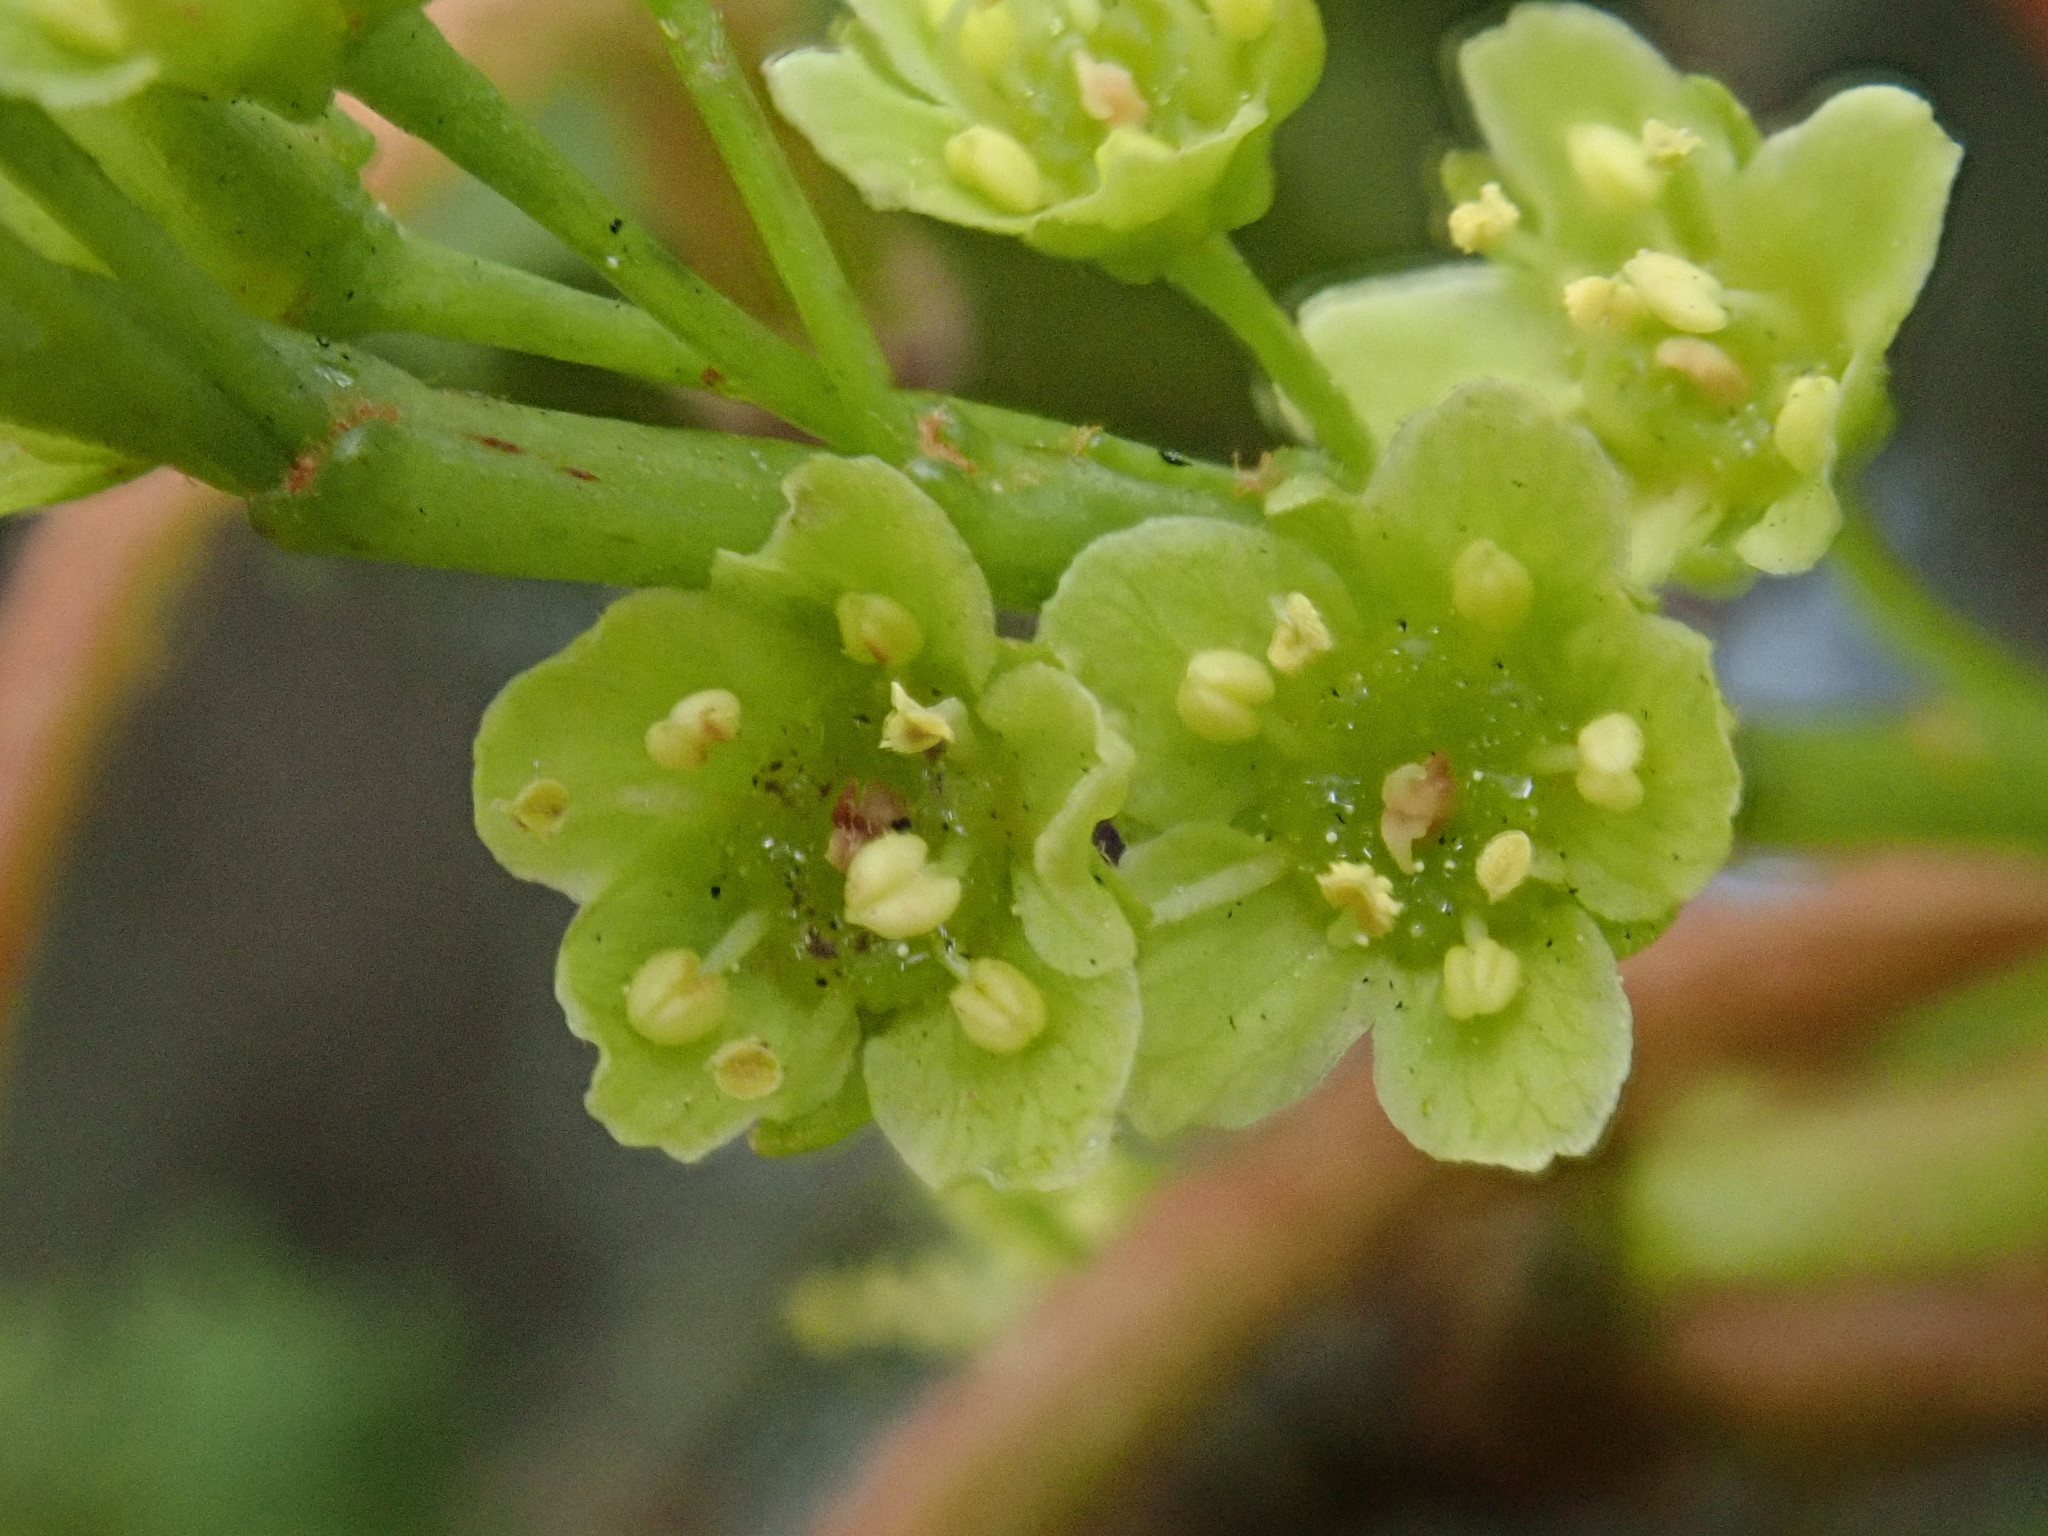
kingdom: Plantae
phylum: Tracheophyta
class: Magnoliopsida
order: Sapindales
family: Sapindaceae
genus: Acer
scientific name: Acer caudatifolium
